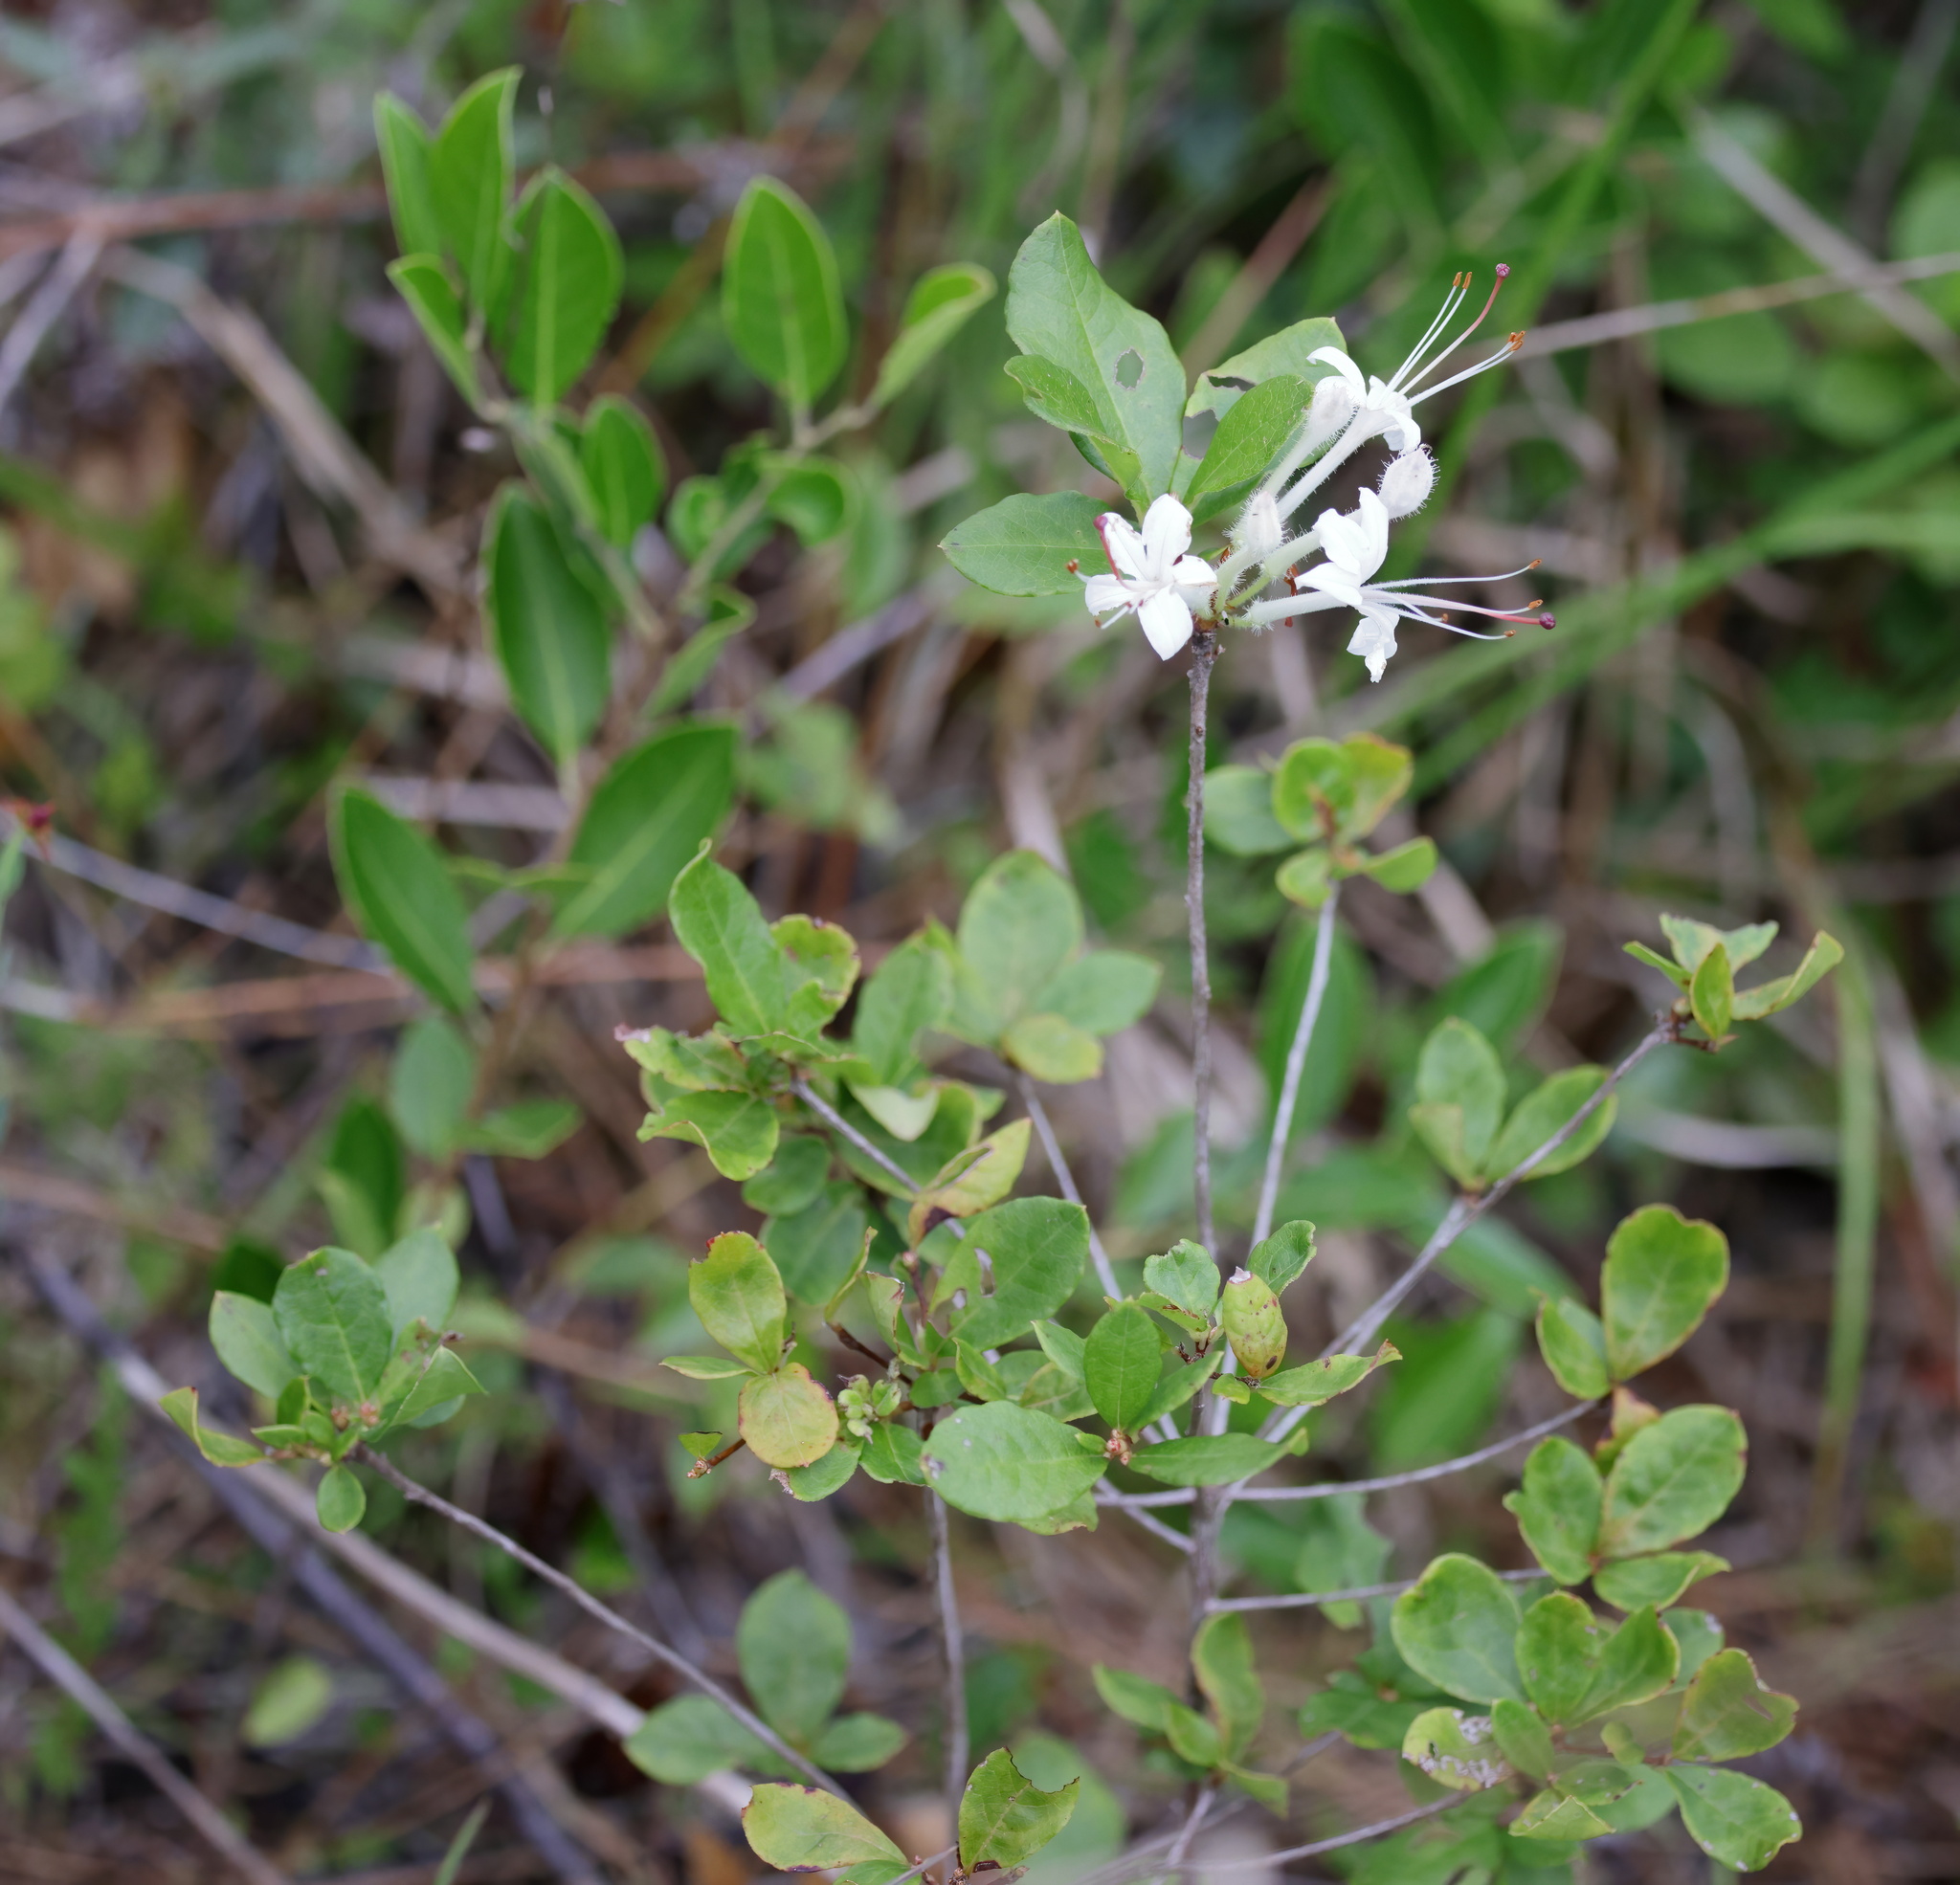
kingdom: Plantae
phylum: Tracheophyta
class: Magnoliopsida
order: Ericales
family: Ericaceae
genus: Rhododendron
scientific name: Rhododendron serrulatum
